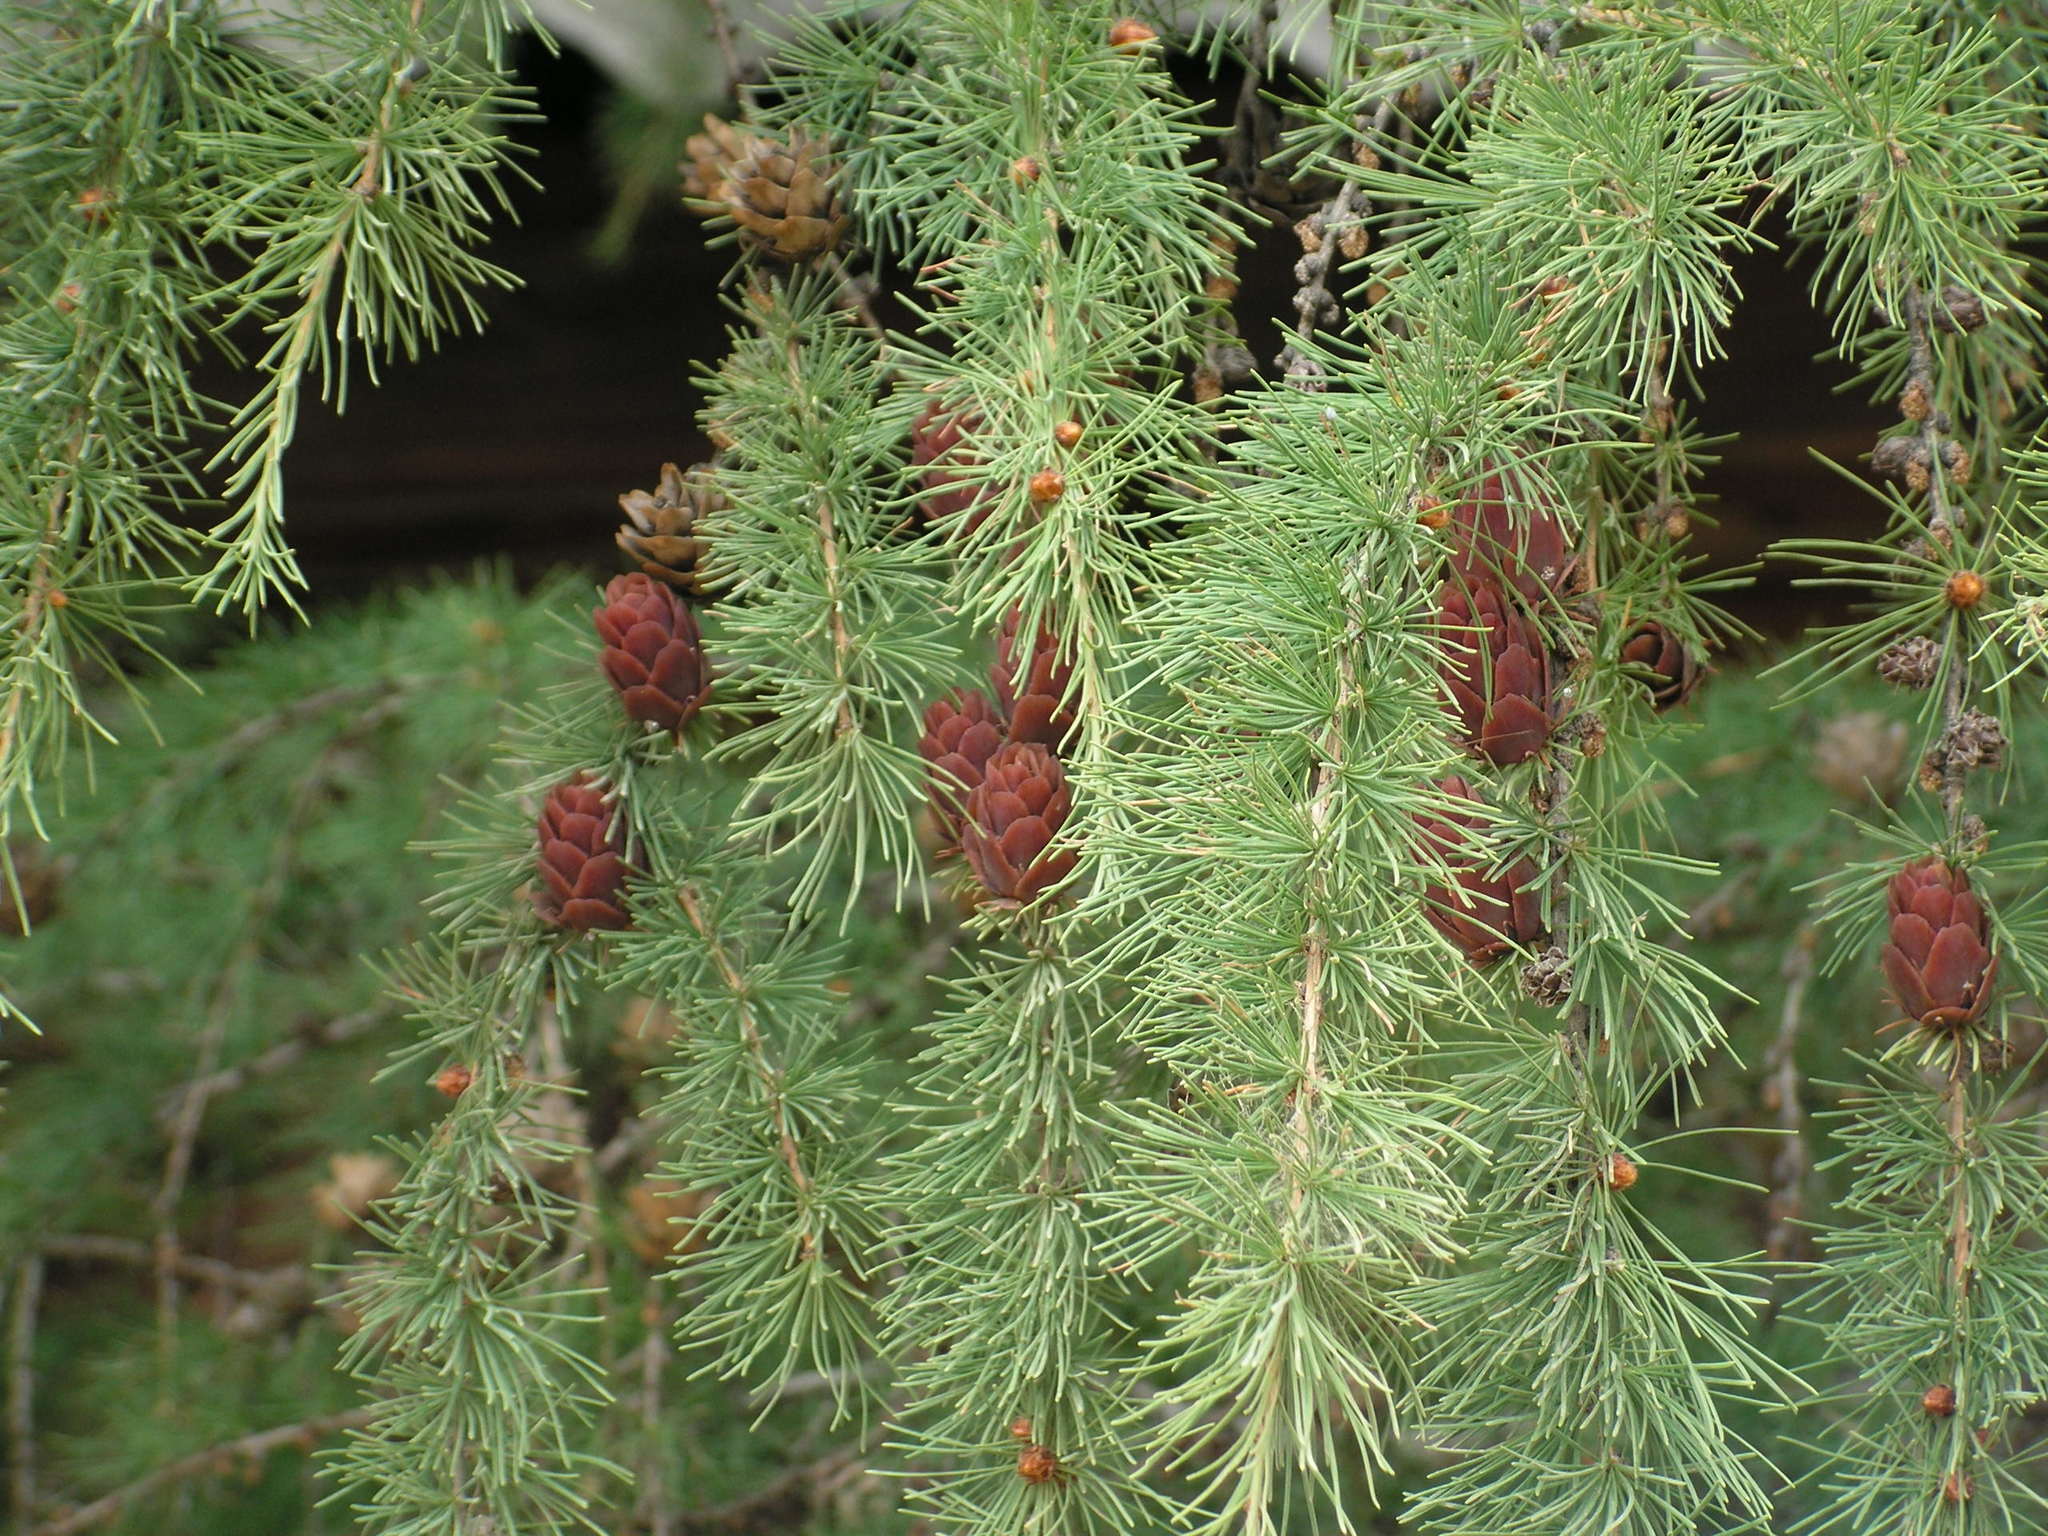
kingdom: Plantae
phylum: Tracheophyta
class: Pinopsida
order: Pinales
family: Pinaceae
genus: Larix
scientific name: Larix sibirica
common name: Siberian larch
